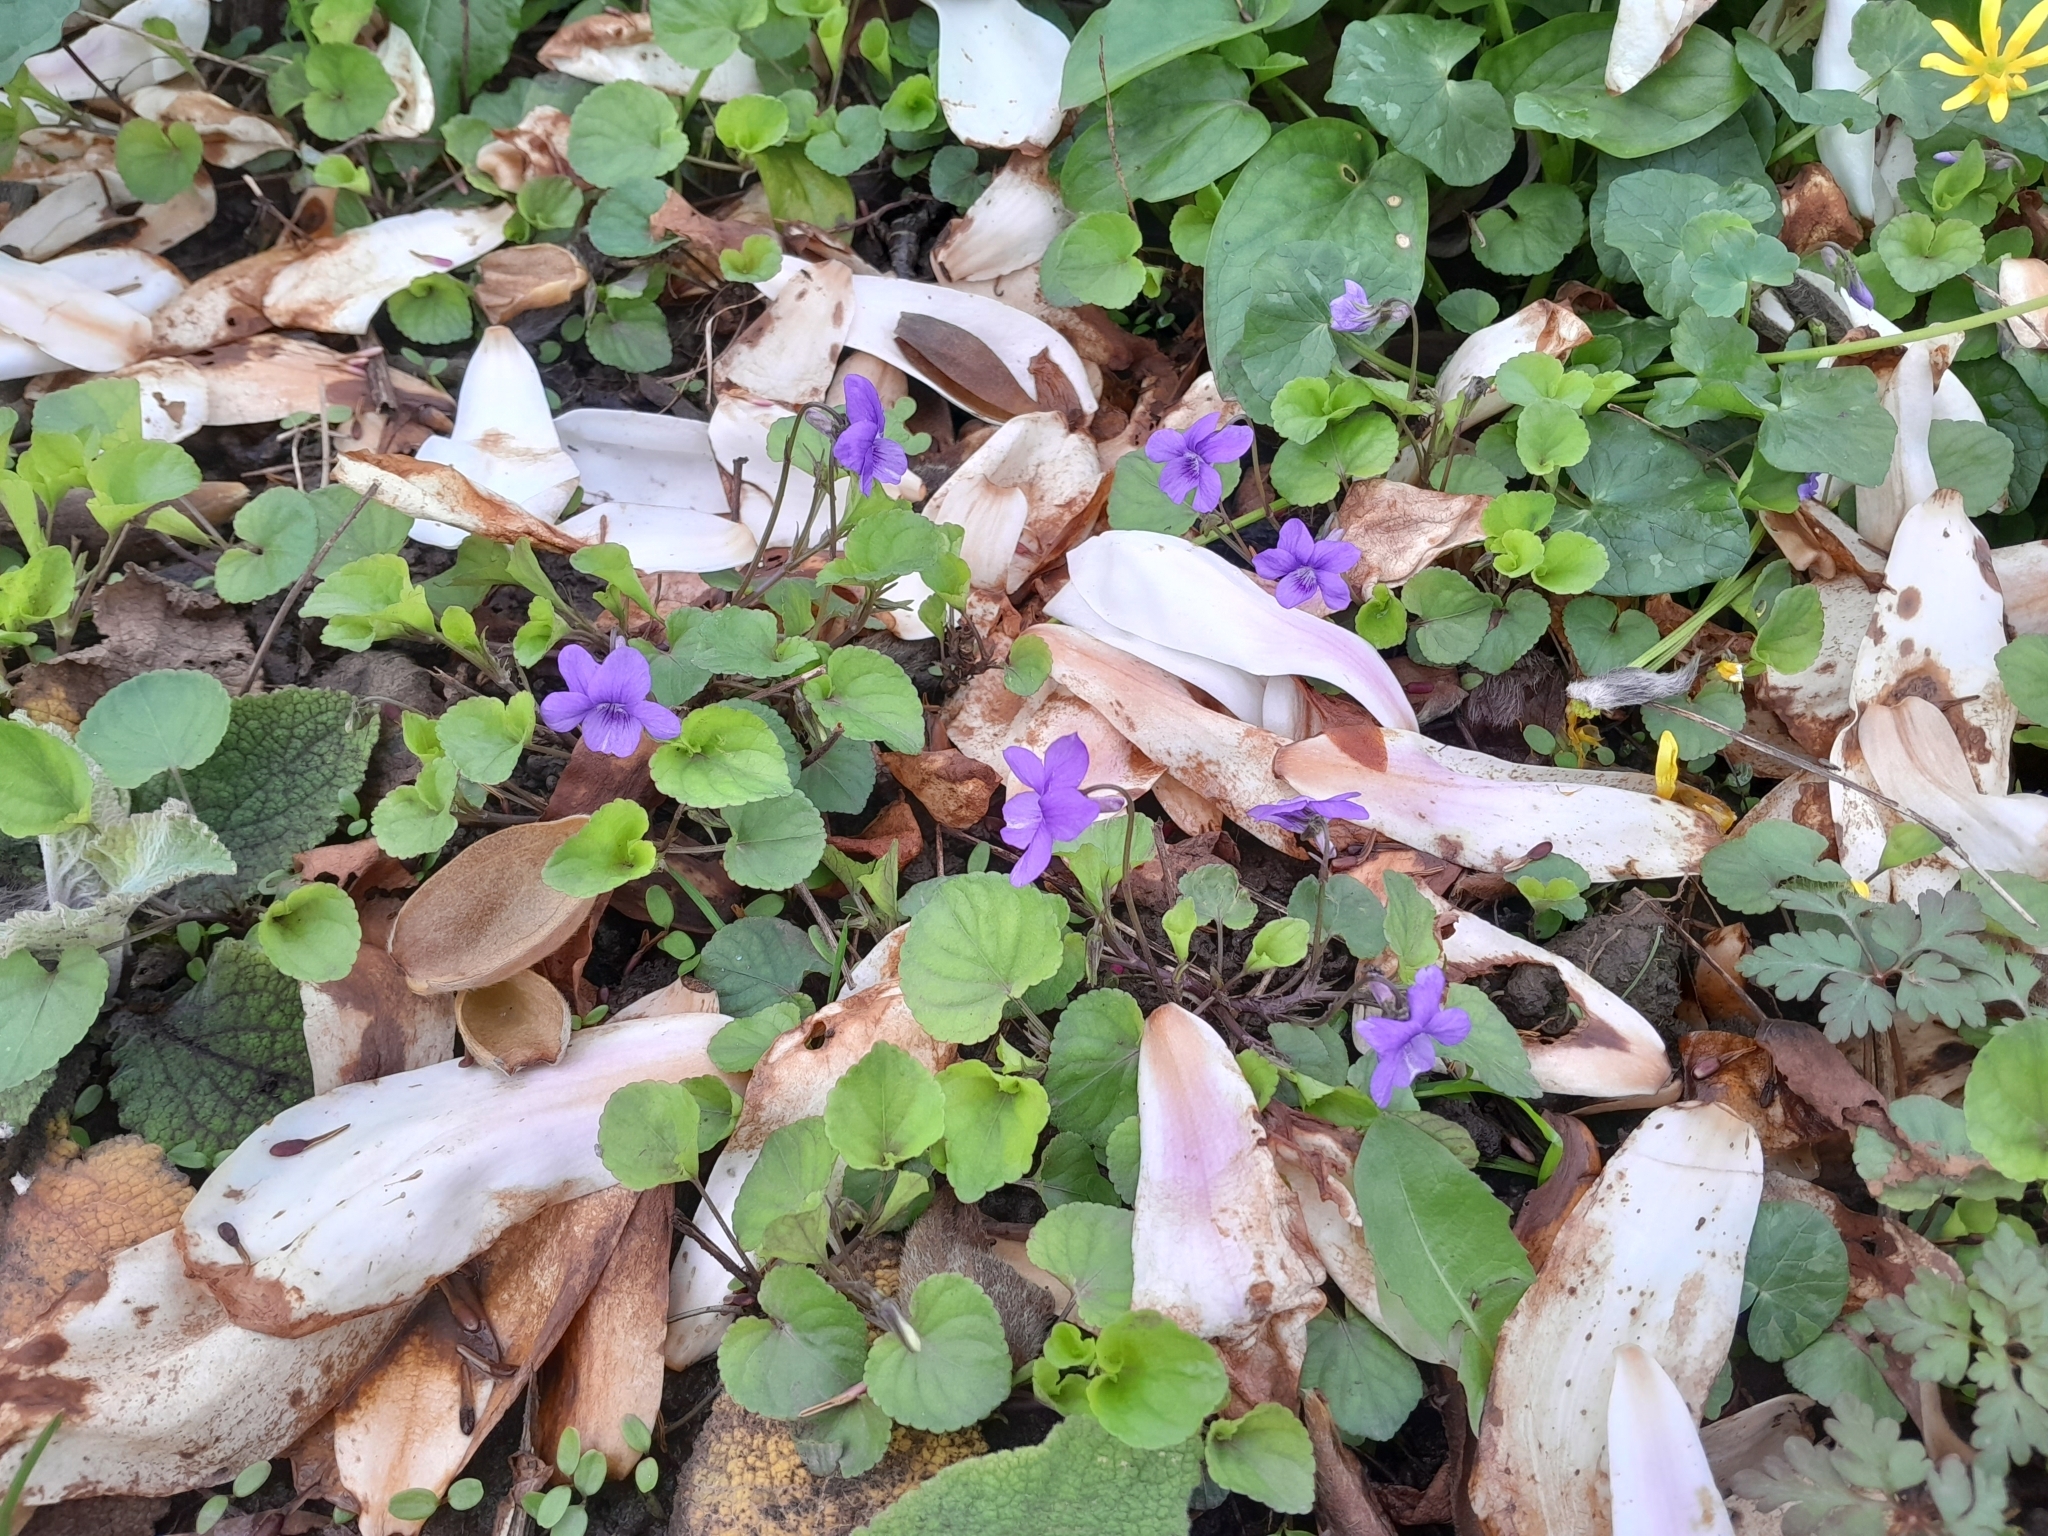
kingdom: Plantae
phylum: Tracheophyta
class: Magnoliopsida
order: Malpighiales
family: Violaceae
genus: Viola
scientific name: Viola riviniana
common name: Common dog-violet
